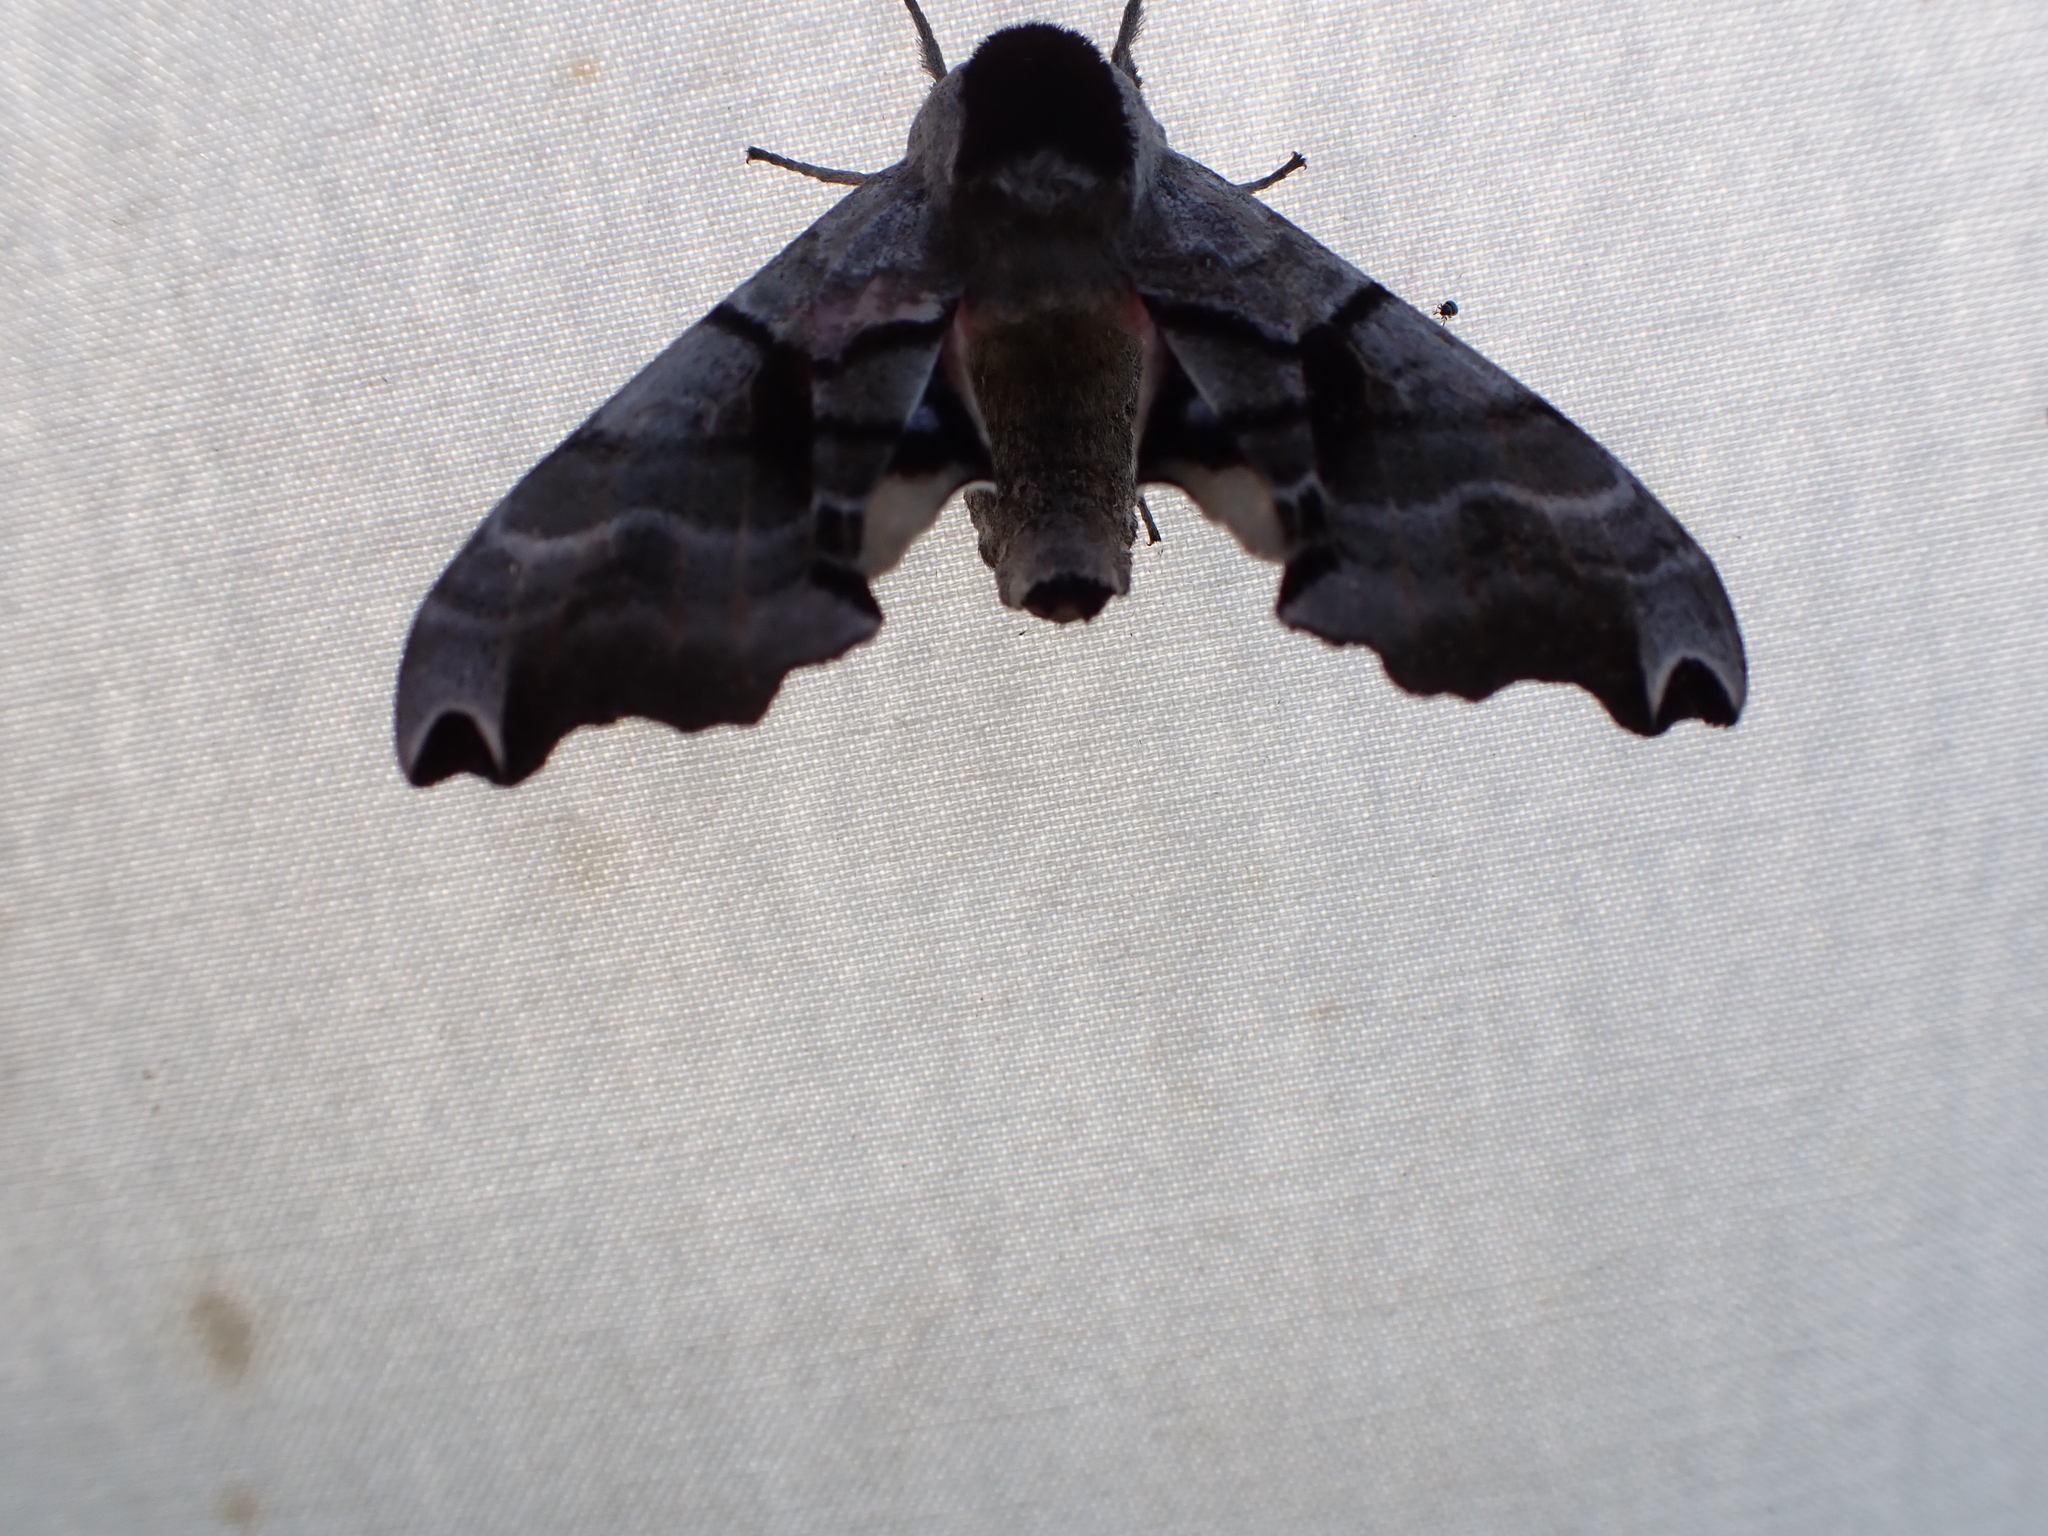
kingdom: Animalia
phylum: Arthropoda
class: Insecta
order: Lepidoptera
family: Sphingidae
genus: Smerinthus
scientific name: Smerinthus jamaicensis
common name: Twin spotted sphinx
